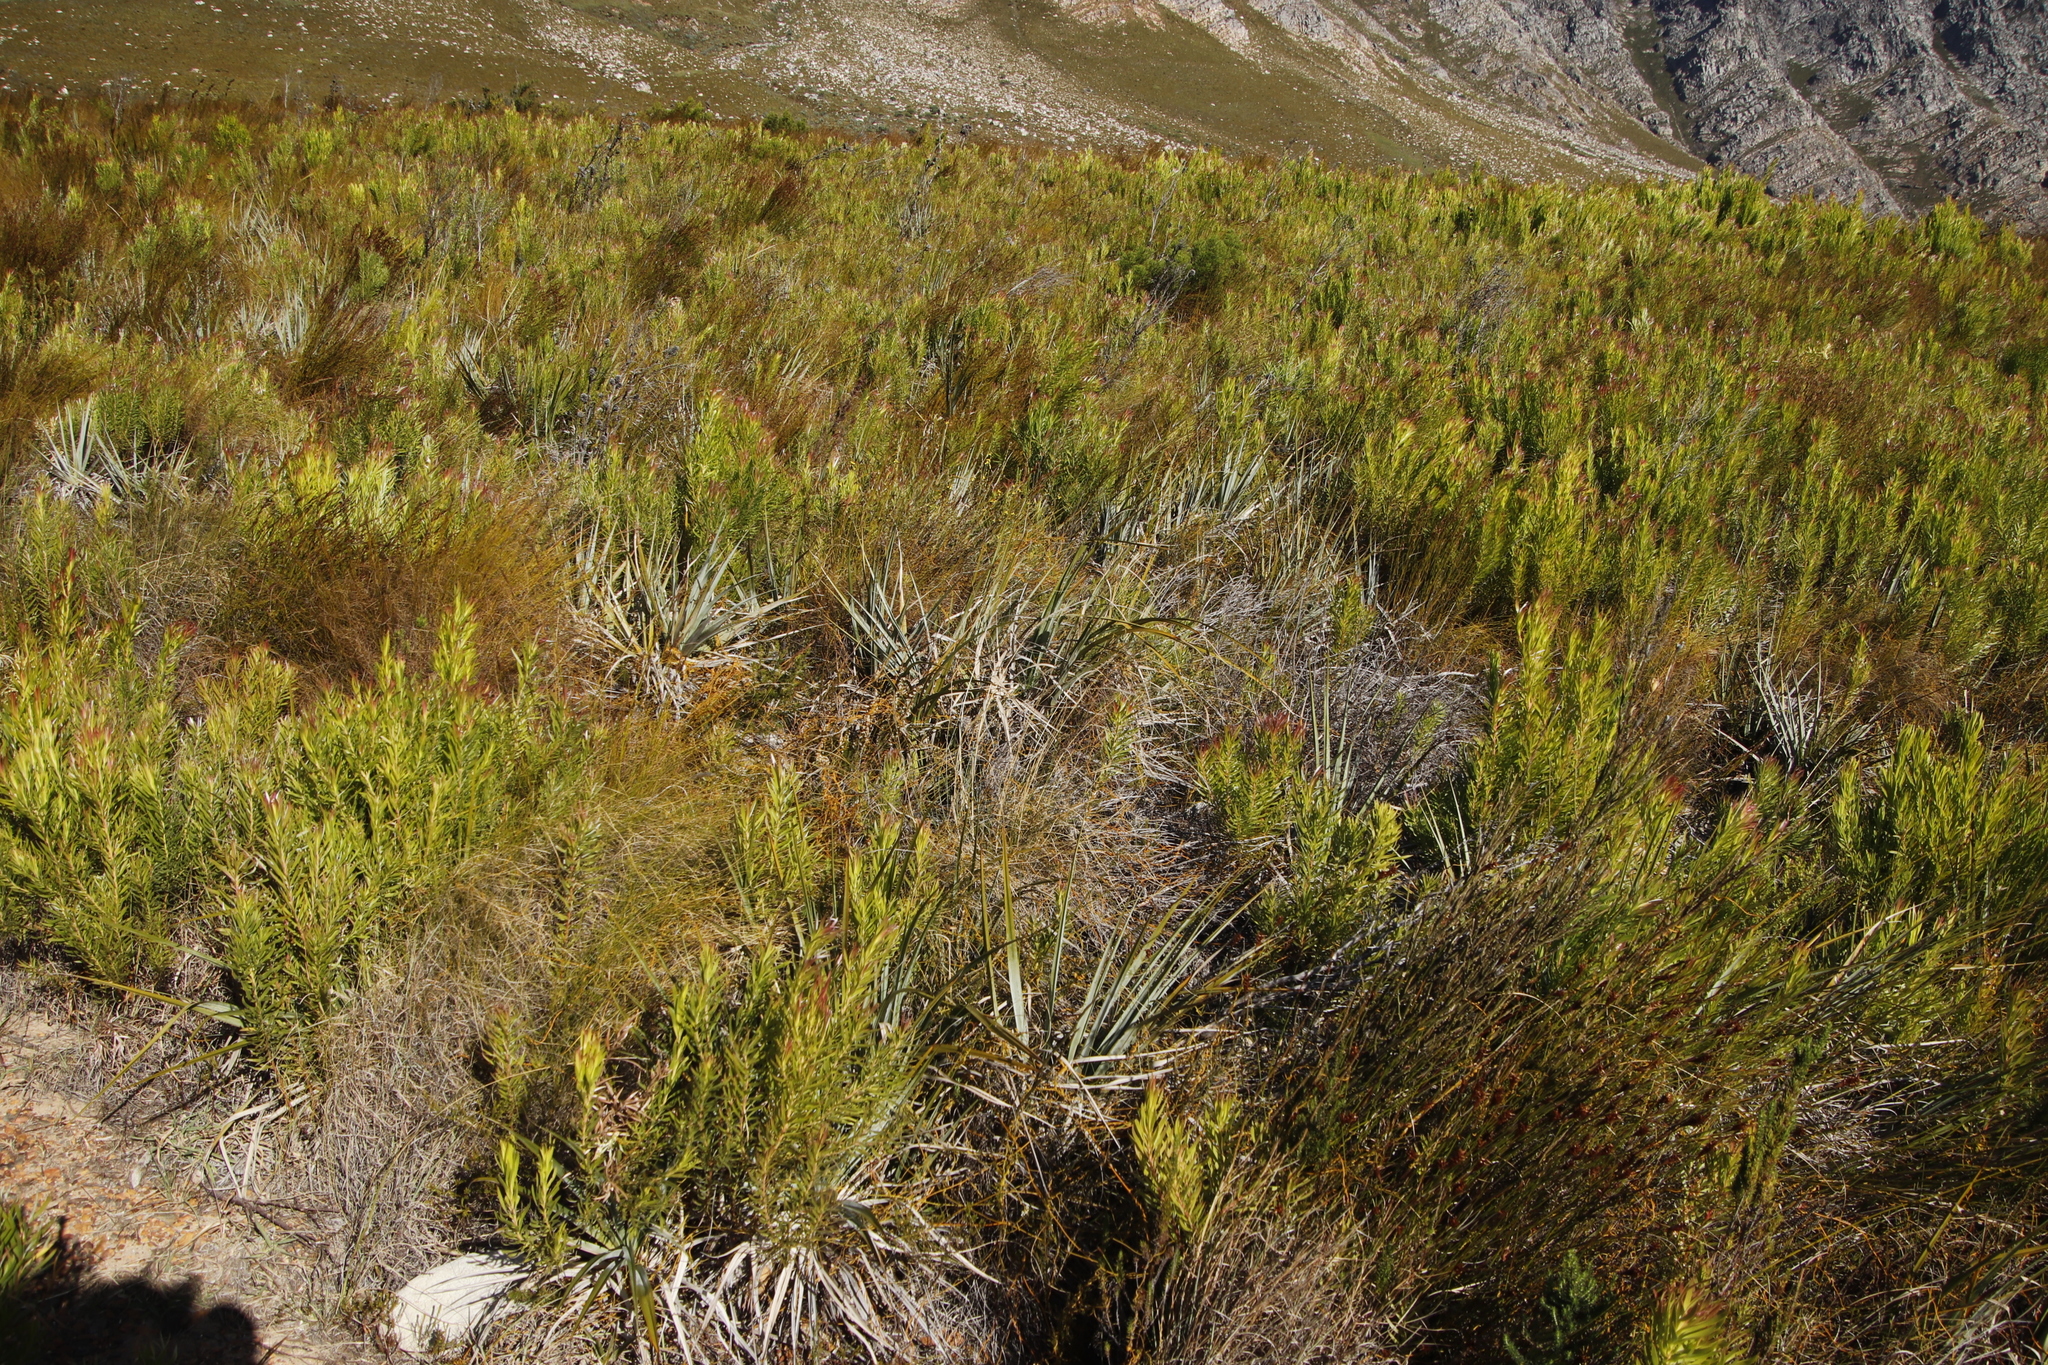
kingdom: Plantae
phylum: Tracheophyta
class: Liliopsida
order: Poales
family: Thurniaceae
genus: Prionium
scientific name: Prionium serratum
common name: Palmiet
